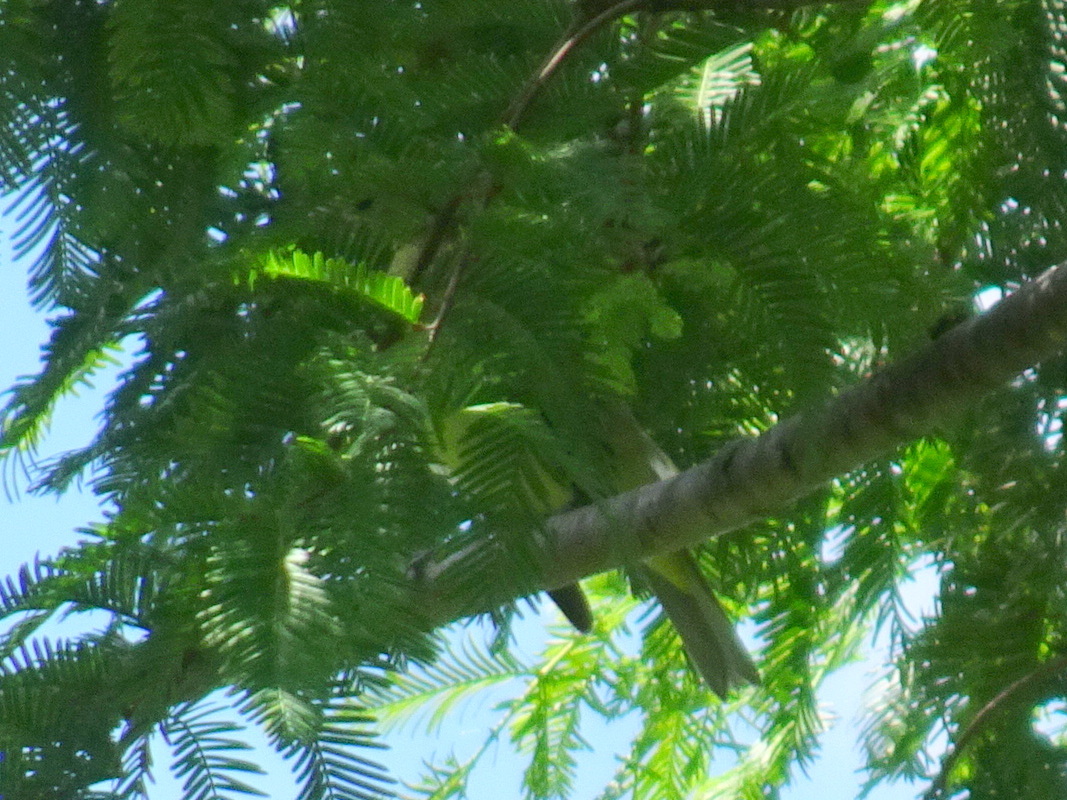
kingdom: Animalia
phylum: Chordata
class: Aves
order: Passeriformes
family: Cardinalidae
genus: Piranga
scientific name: Piranga olivacea
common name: Scarlet tanager
